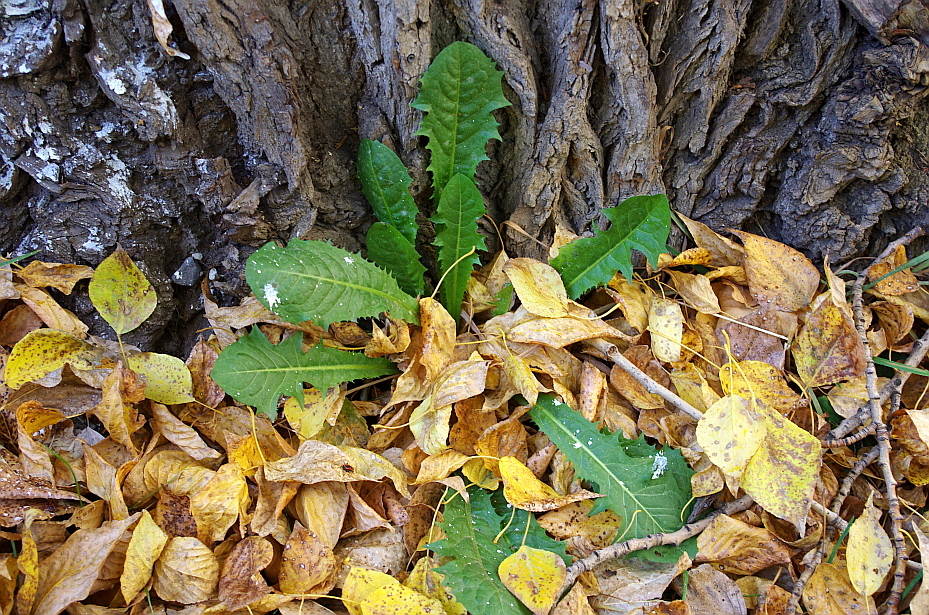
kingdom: Plantae
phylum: Tracheophyta
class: Magnoliopsida
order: Asterales
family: Asteraceae
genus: Taraxacum
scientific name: Taraxacum officinale
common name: Common dandelion
